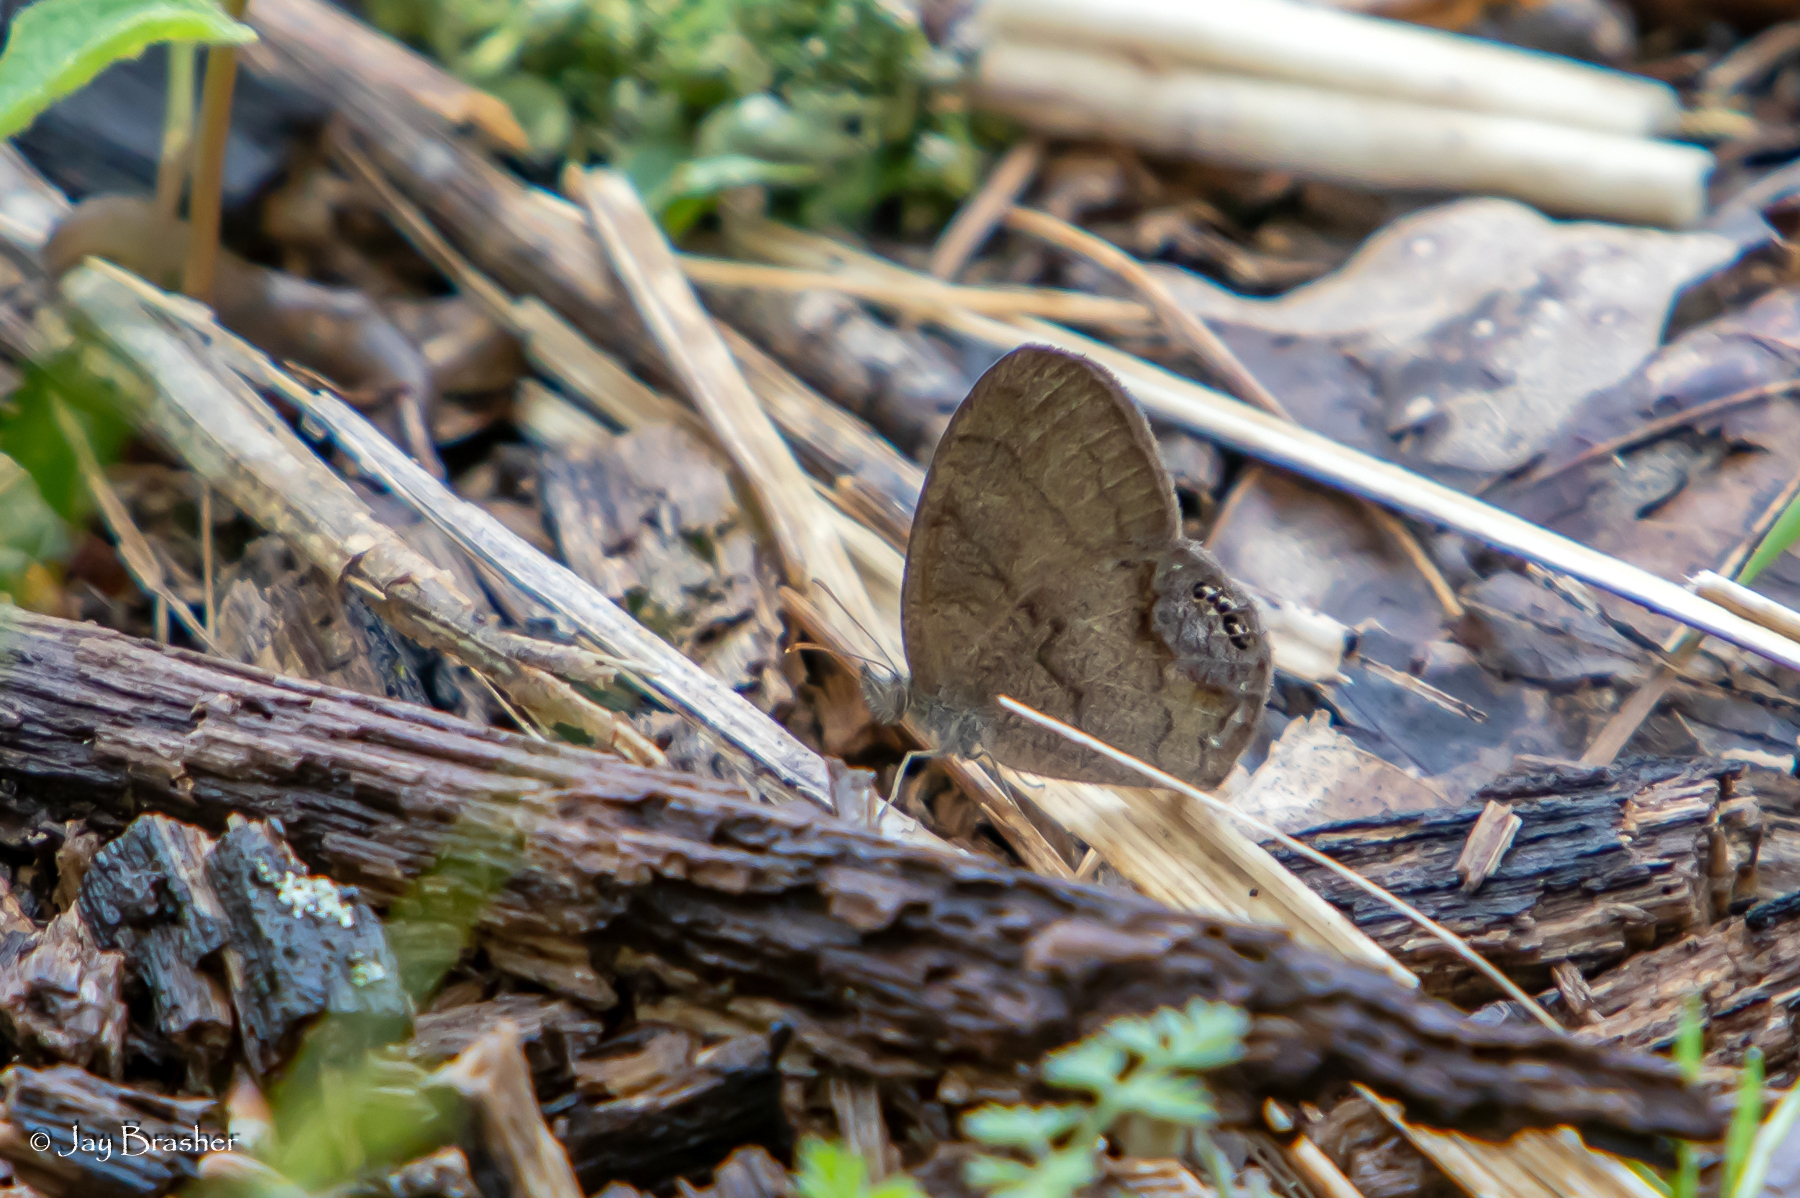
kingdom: Animalia
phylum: Arthropoda
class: Insecta
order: Lepidoptera
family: Nymphalidae
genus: Euptychia
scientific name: Euptychia cornelius
